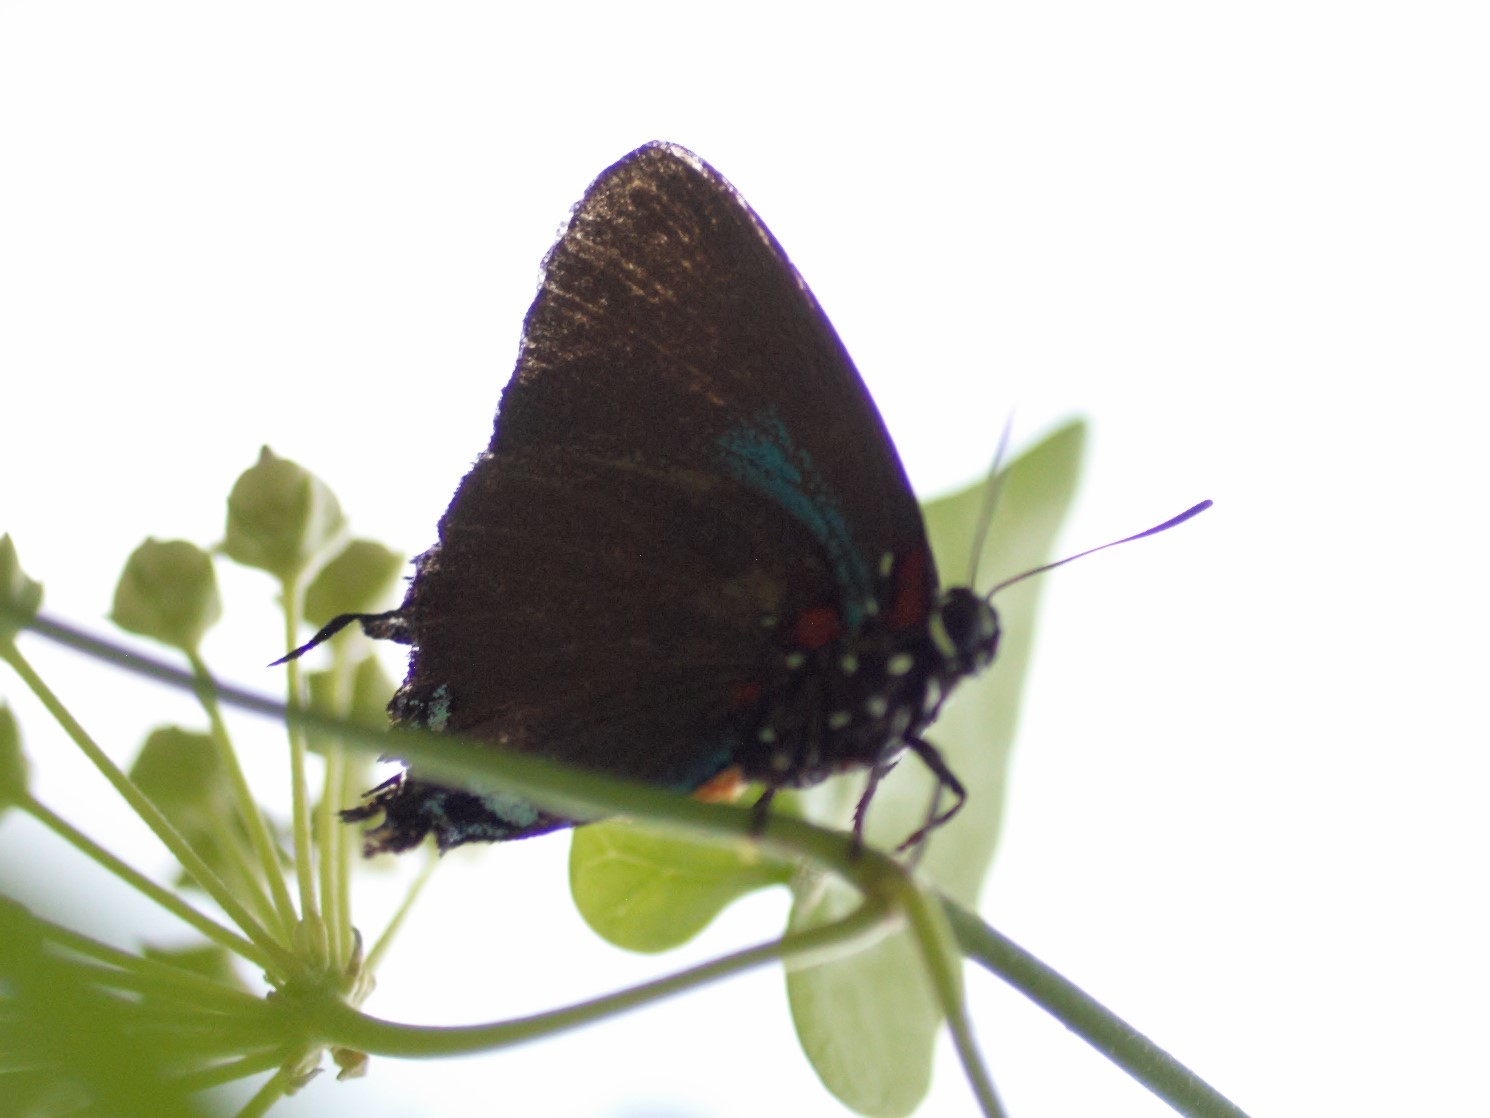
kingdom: Animalia
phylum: Arthropoda
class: Insecta
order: Lepidoptera
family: Lycaenidae
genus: Atlides
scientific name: Atlides halesus
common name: Great purple hairstreak
